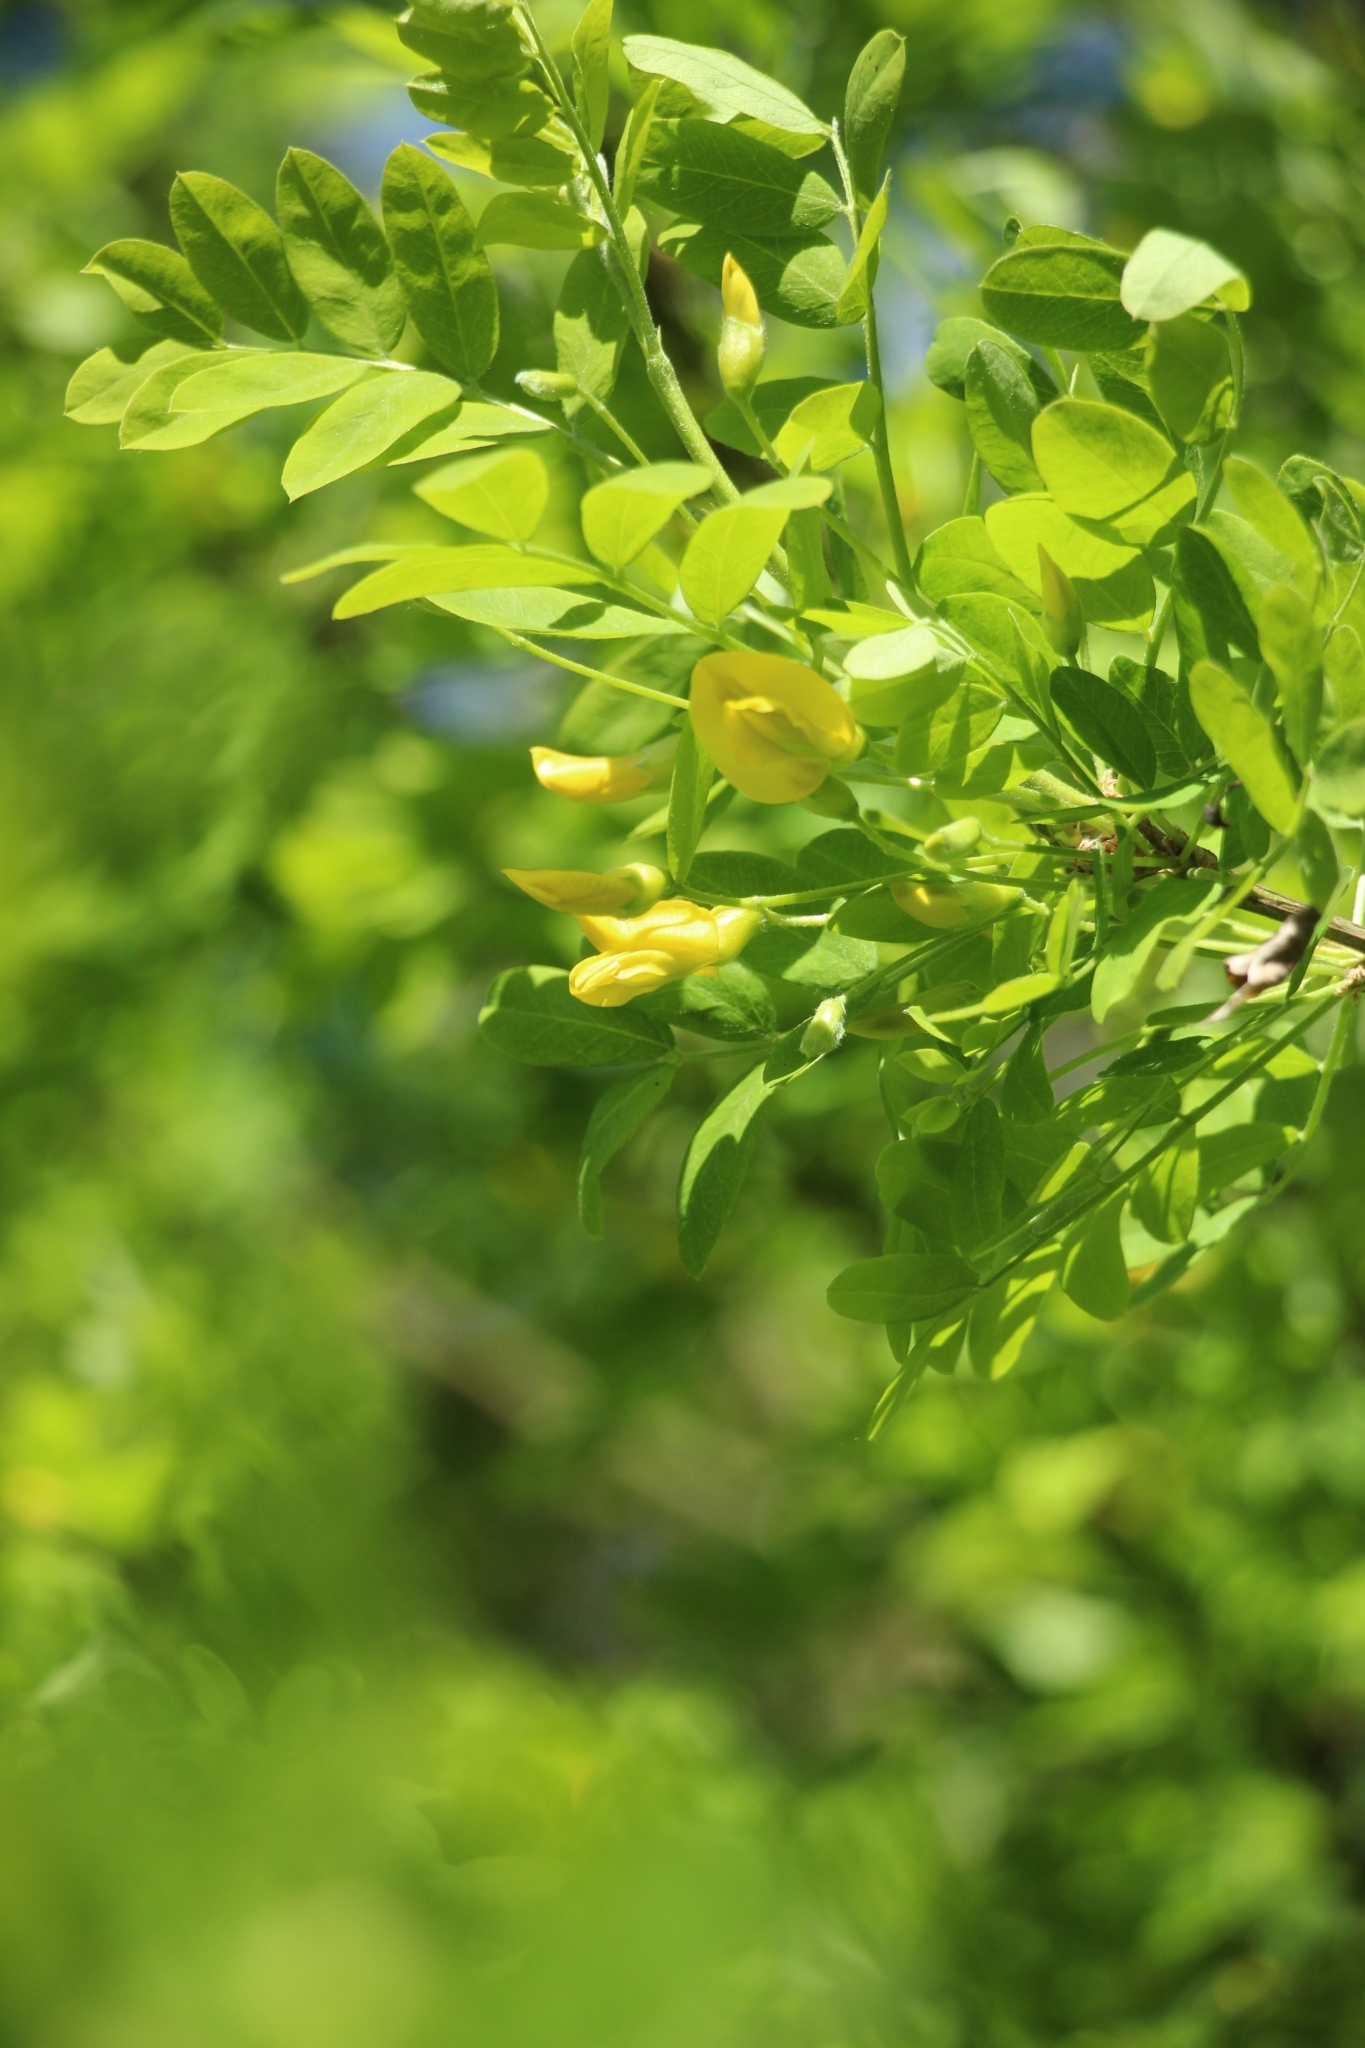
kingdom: Plantae
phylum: Tracheophyta
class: Magnoliopsida
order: Fabales
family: Fabaceae
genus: Caragana
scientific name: Caragana arborescens
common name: Siberian peashrub
